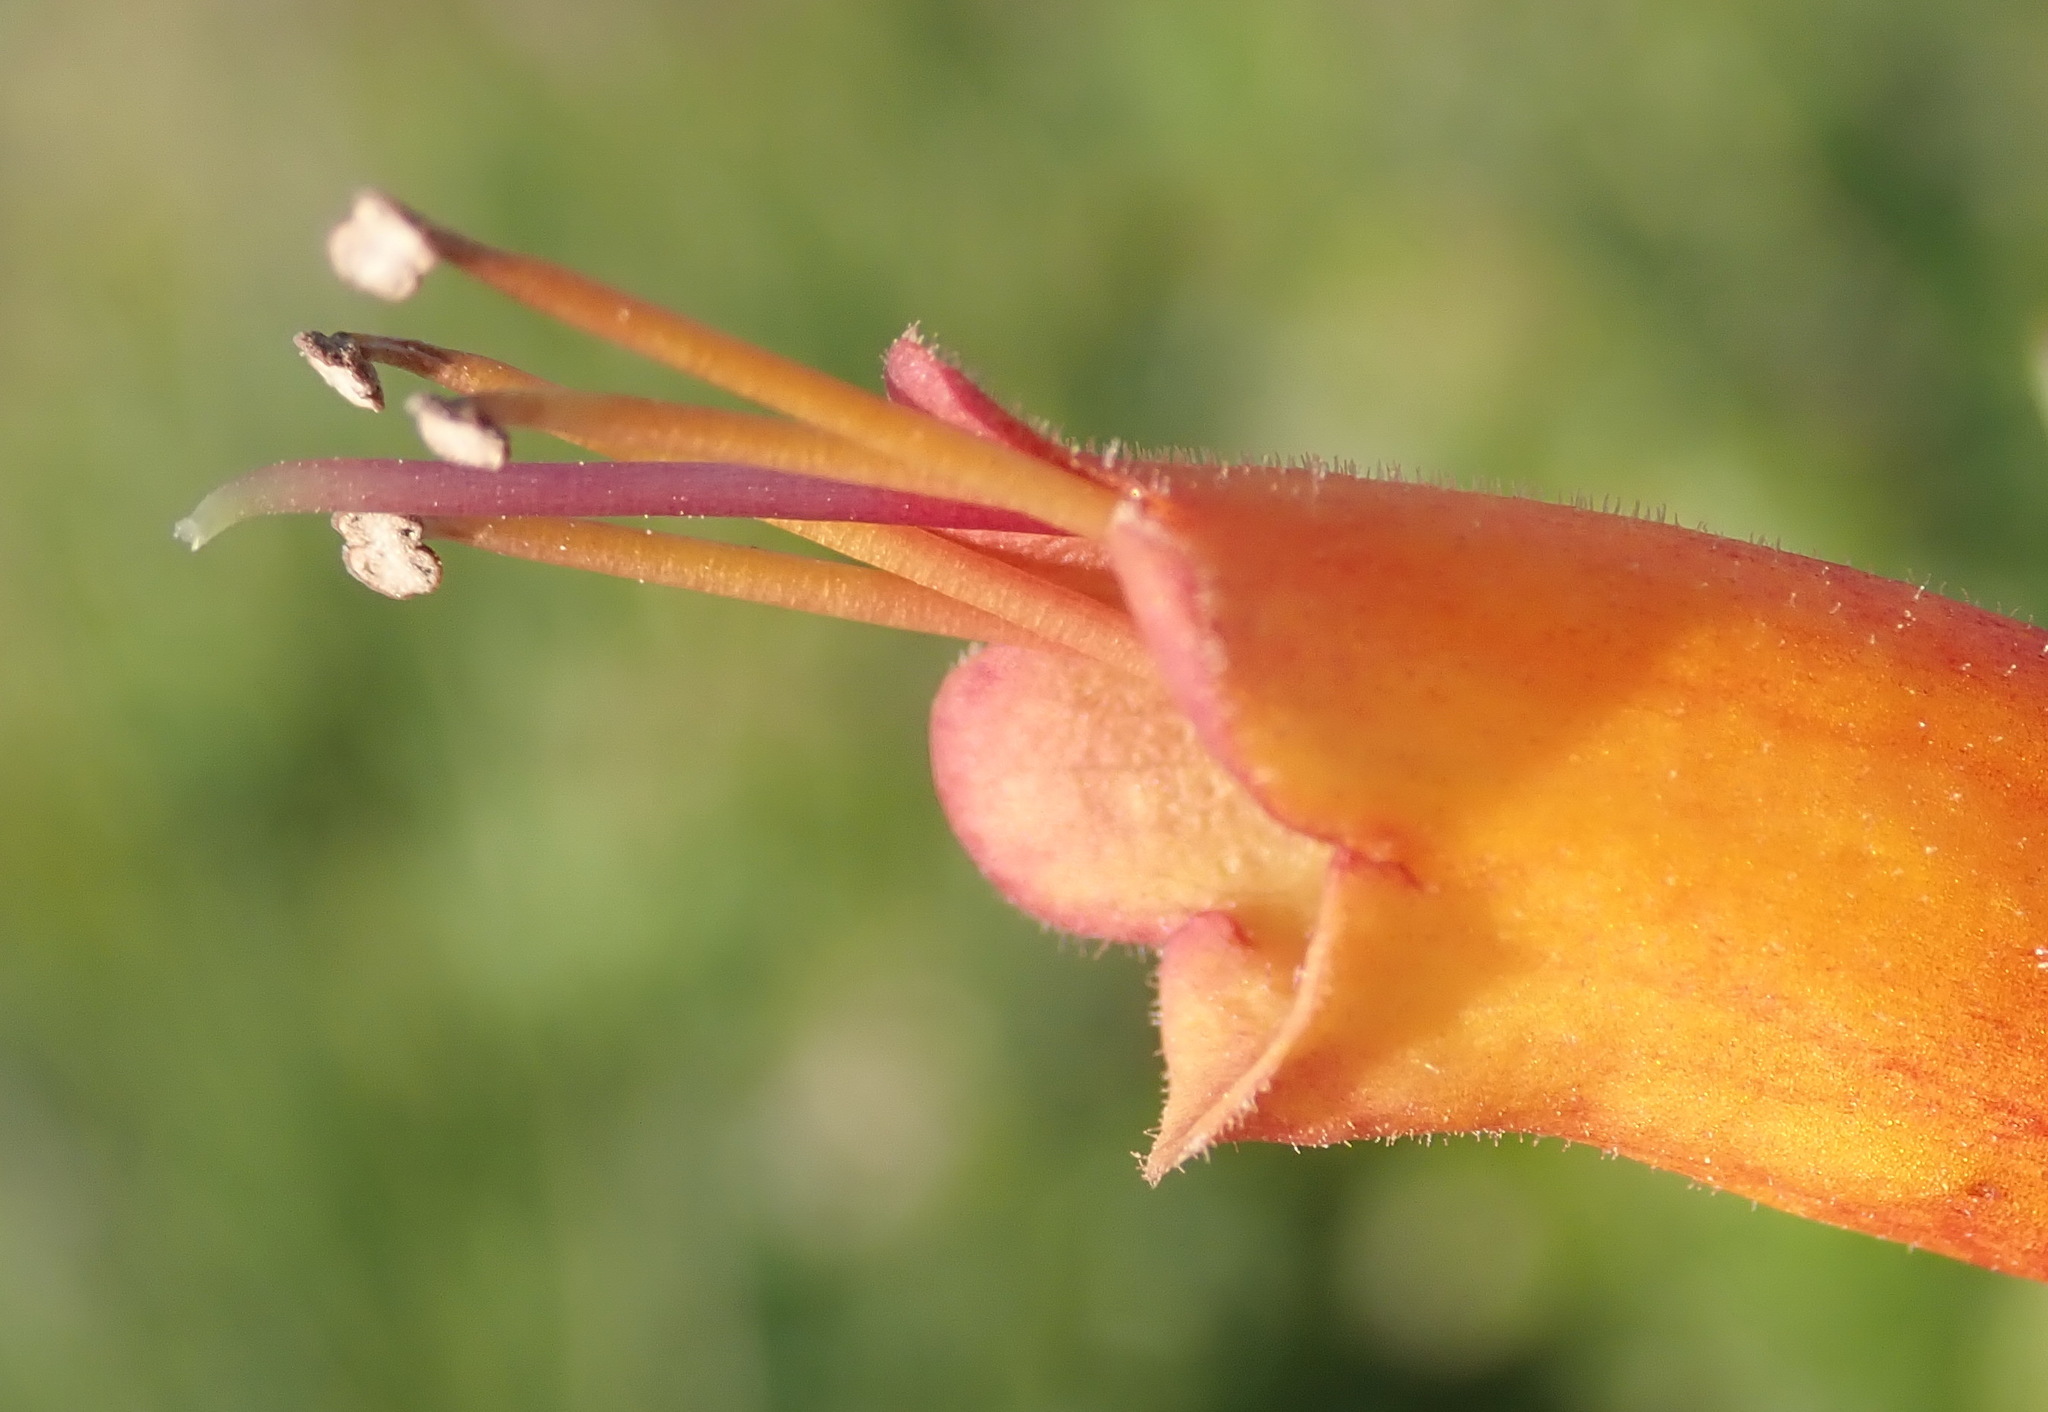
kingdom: Plantae
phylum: Tracheophyta
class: Magnoliopsida
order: Lamiales
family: Stilbaceae
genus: Halleria
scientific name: Halleria lucida
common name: Tree fuschia
